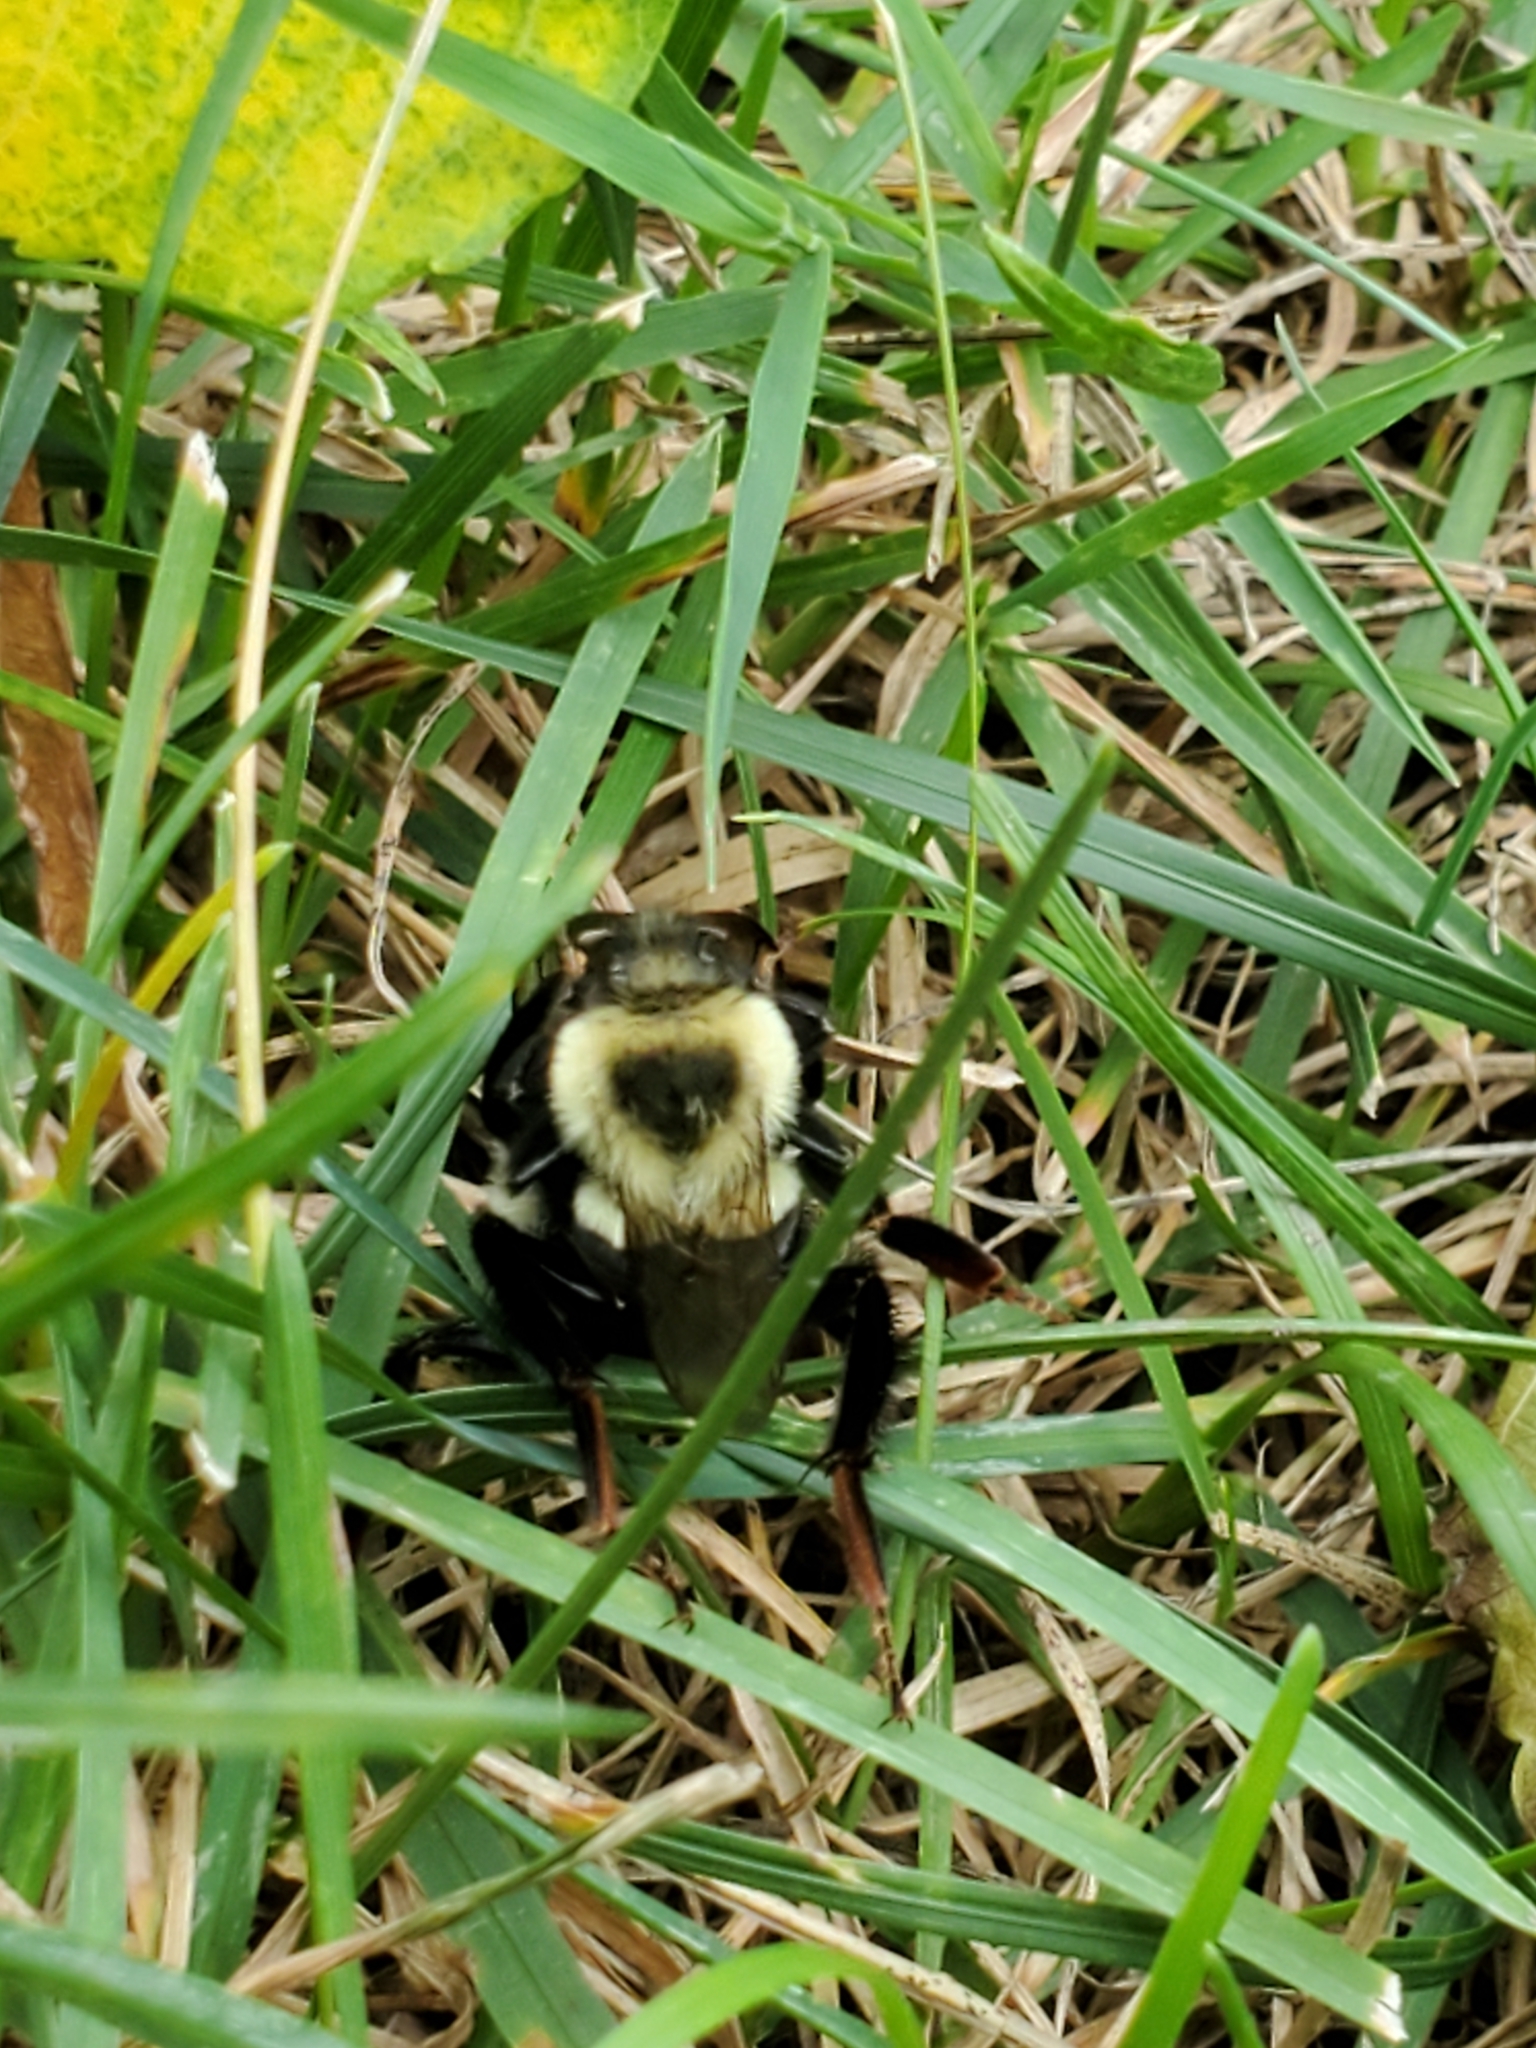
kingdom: Animalia
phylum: Arthropoda
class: Insecta
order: Hymenoptera
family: Apidae
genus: Bombus
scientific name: Bombus impatiens
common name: Common eastern bumble bee
